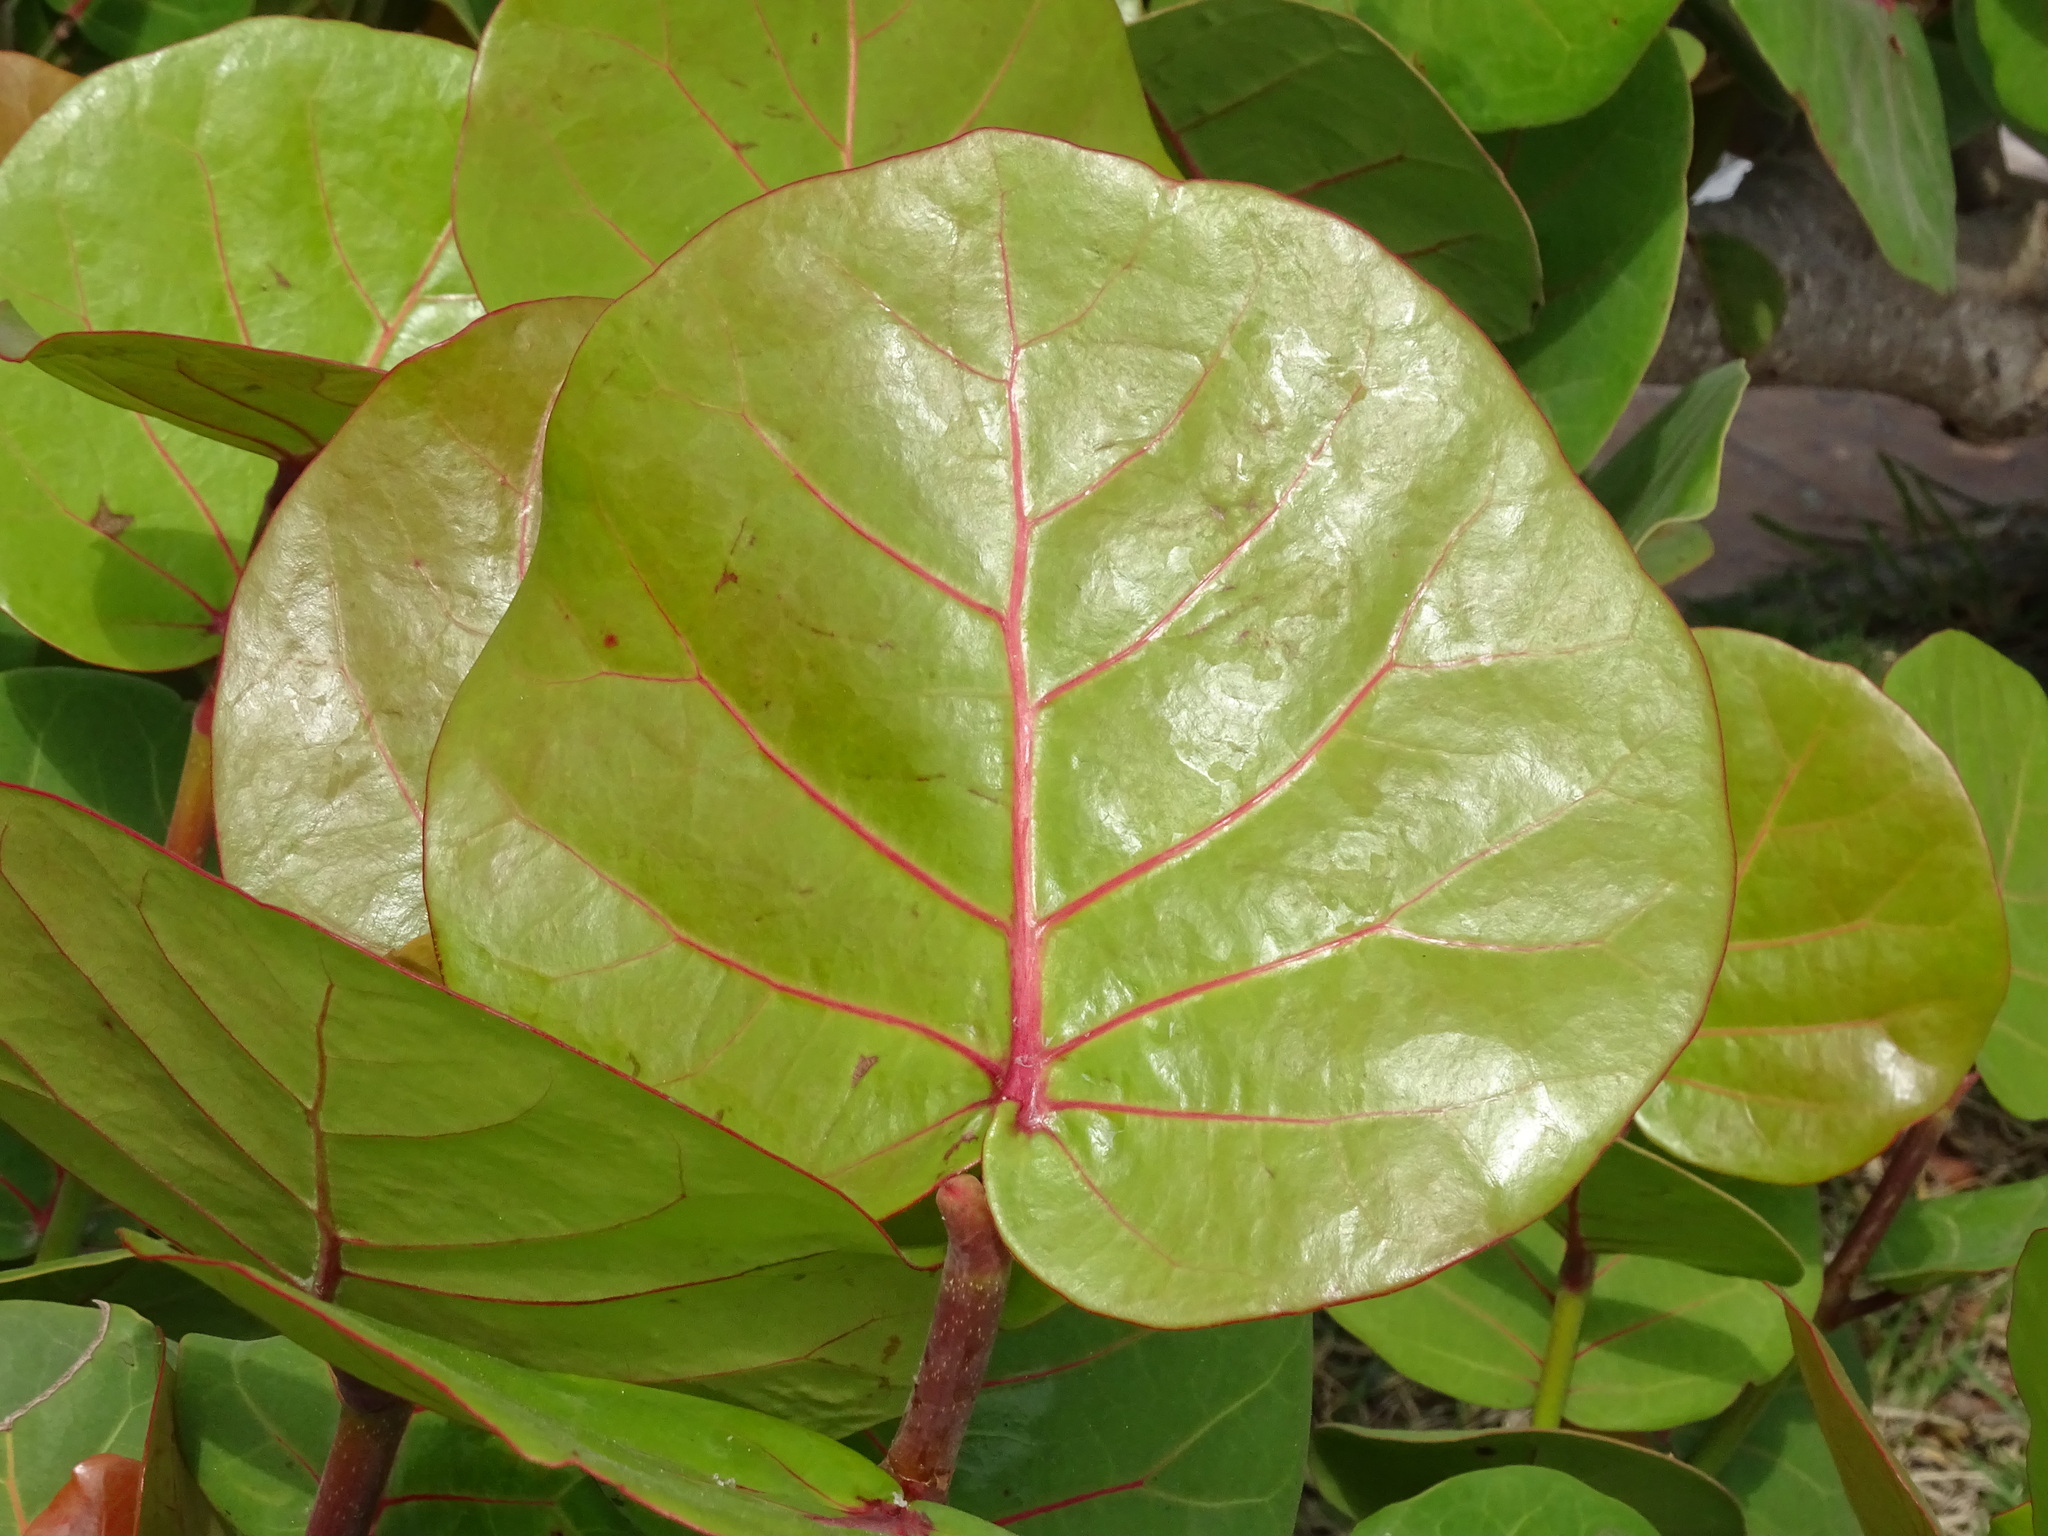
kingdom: Plantae
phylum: Tracheophyta
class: Magnoliopsida
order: Caryophyllales
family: Polygonaceae
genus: Coccoloba
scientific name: Coccoloba uvifera
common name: Seagrape
